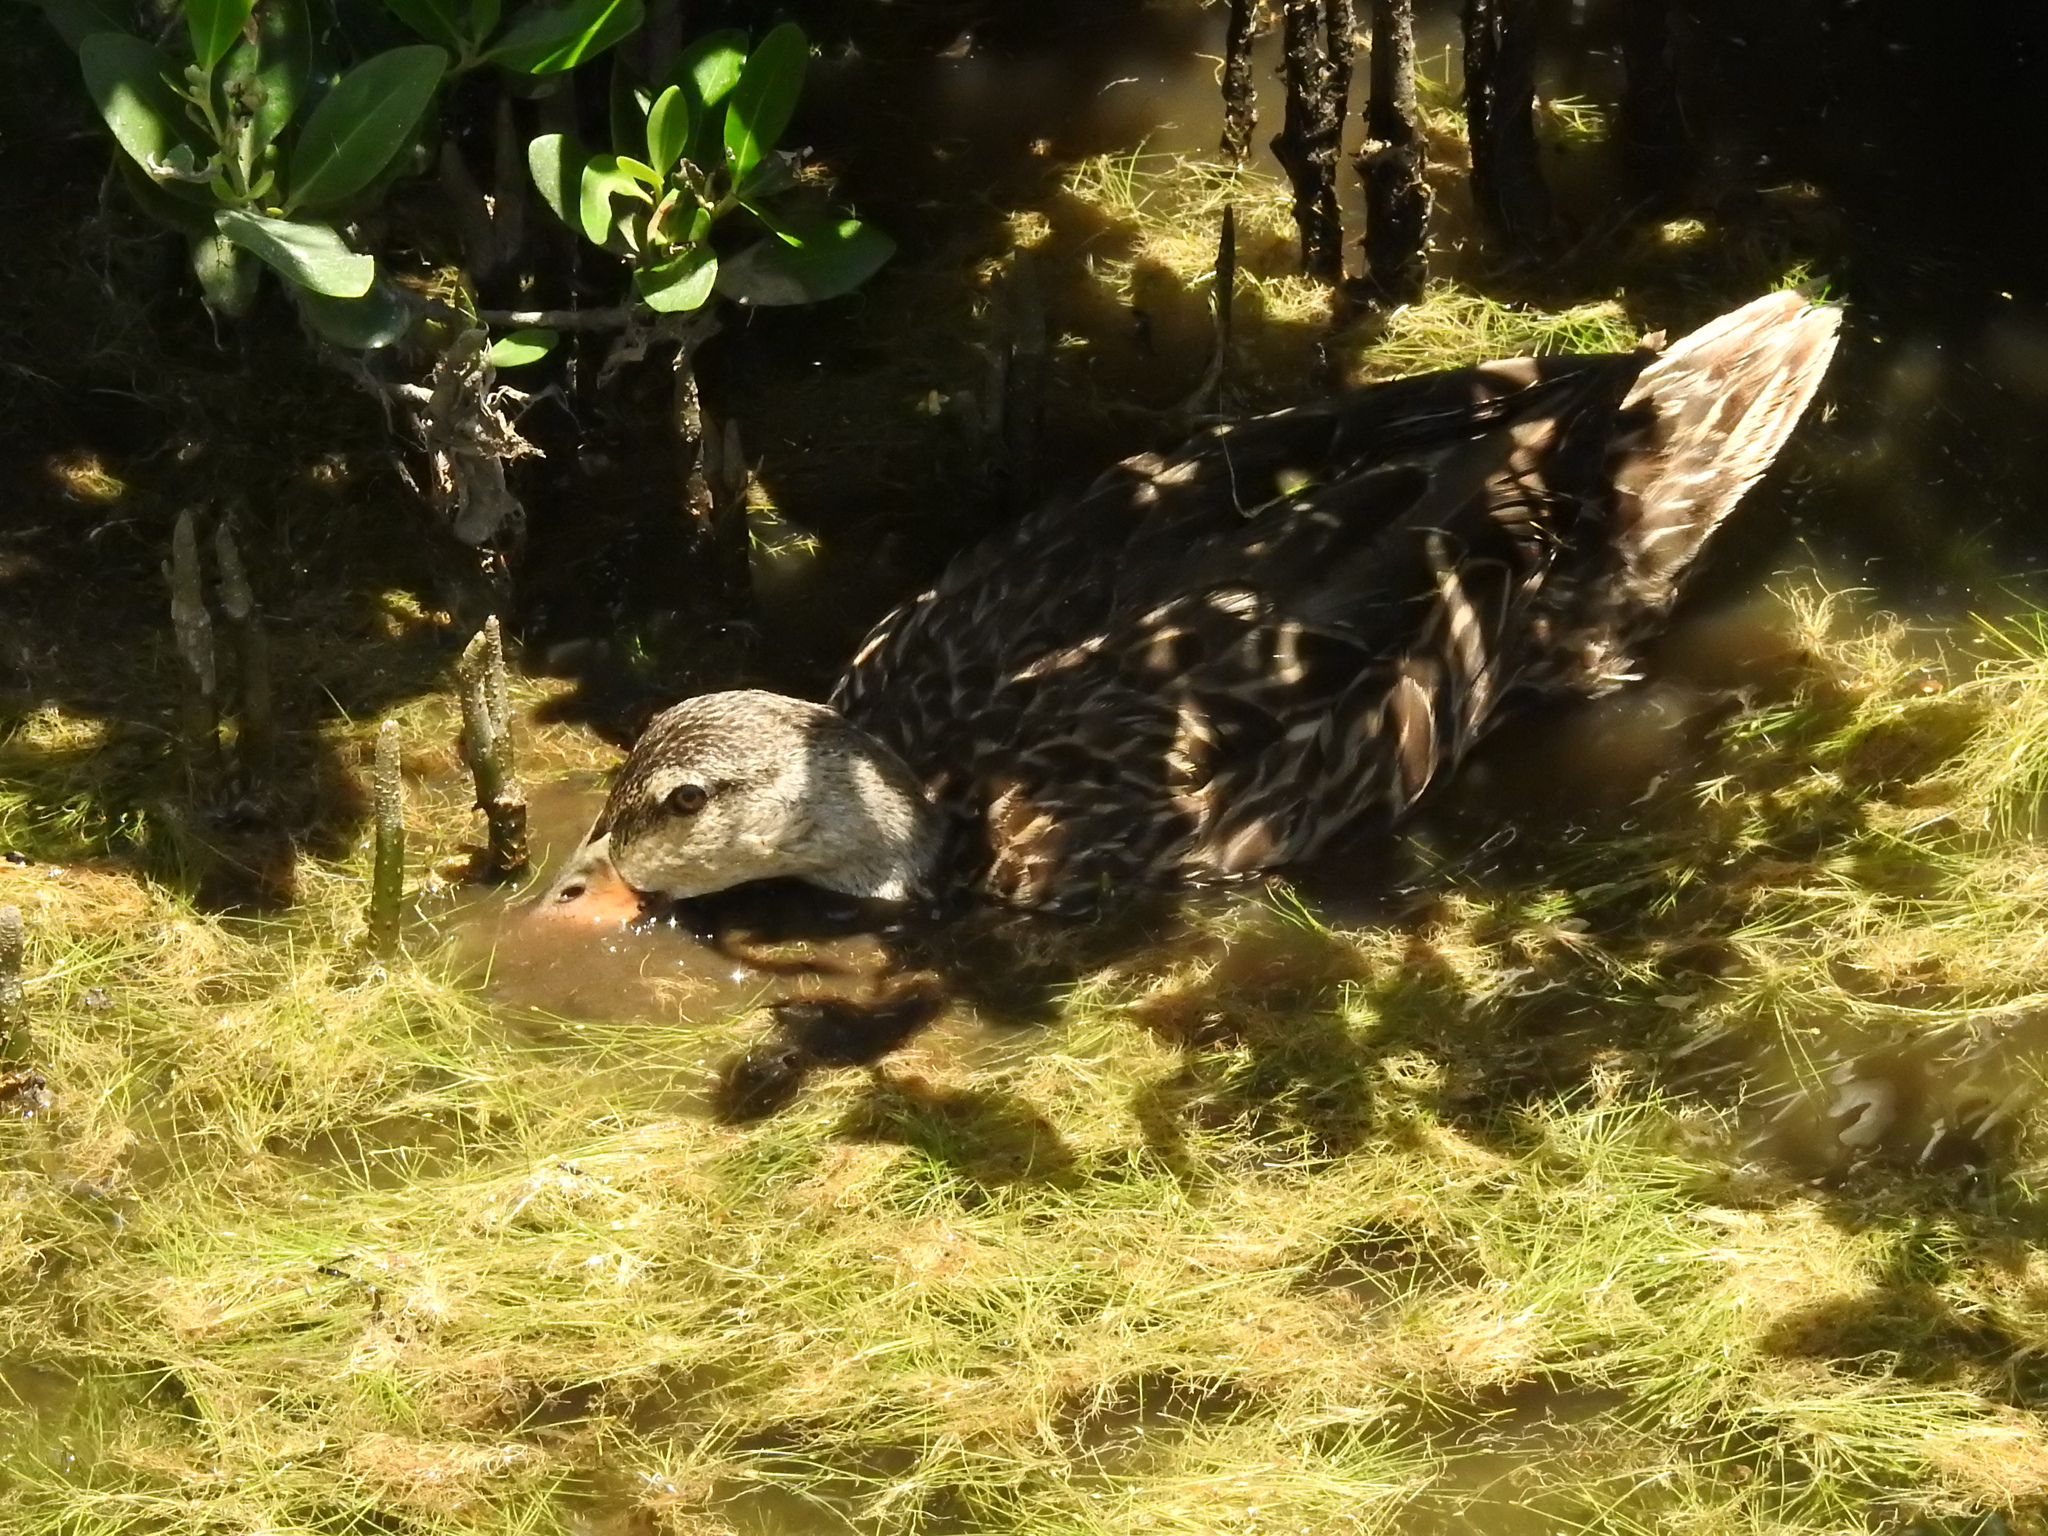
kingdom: Animalia
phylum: Chordata
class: Aves
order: Anseriformes
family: Anatidae
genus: Anas
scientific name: Anas fulvigula
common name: Mottled duck
